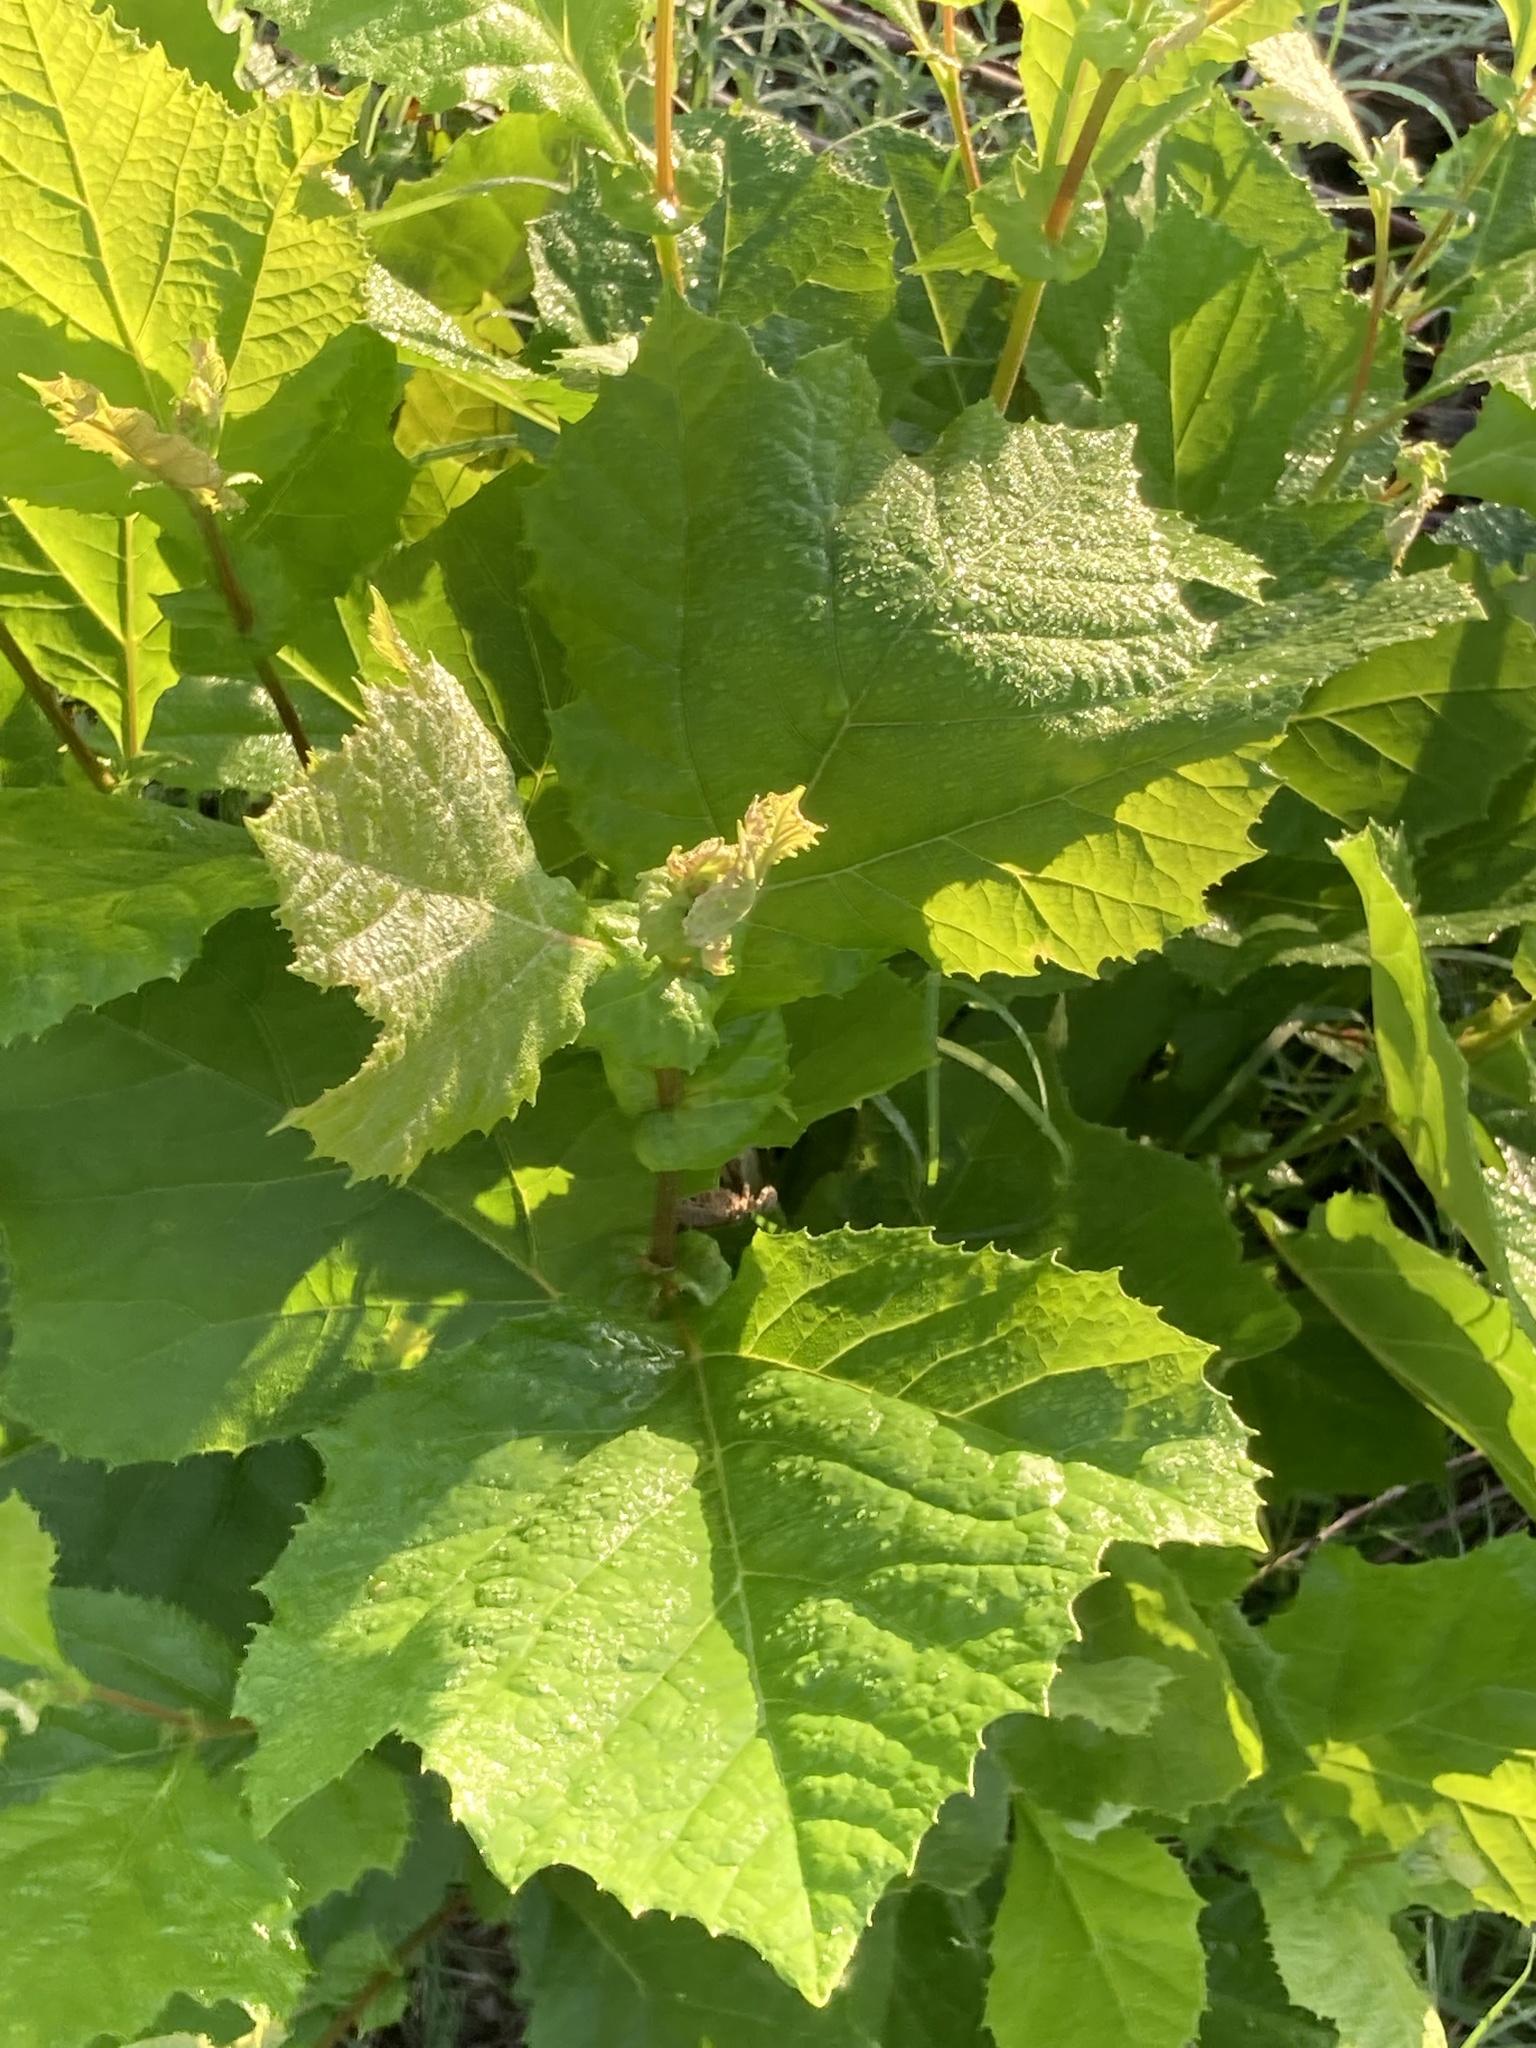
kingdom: Plantae
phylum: Tracheophyta
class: Magnoliopsida
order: Proteales
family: Platanaceae
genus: Platanus
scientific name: Platanus occidentalis
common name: American sycamore
